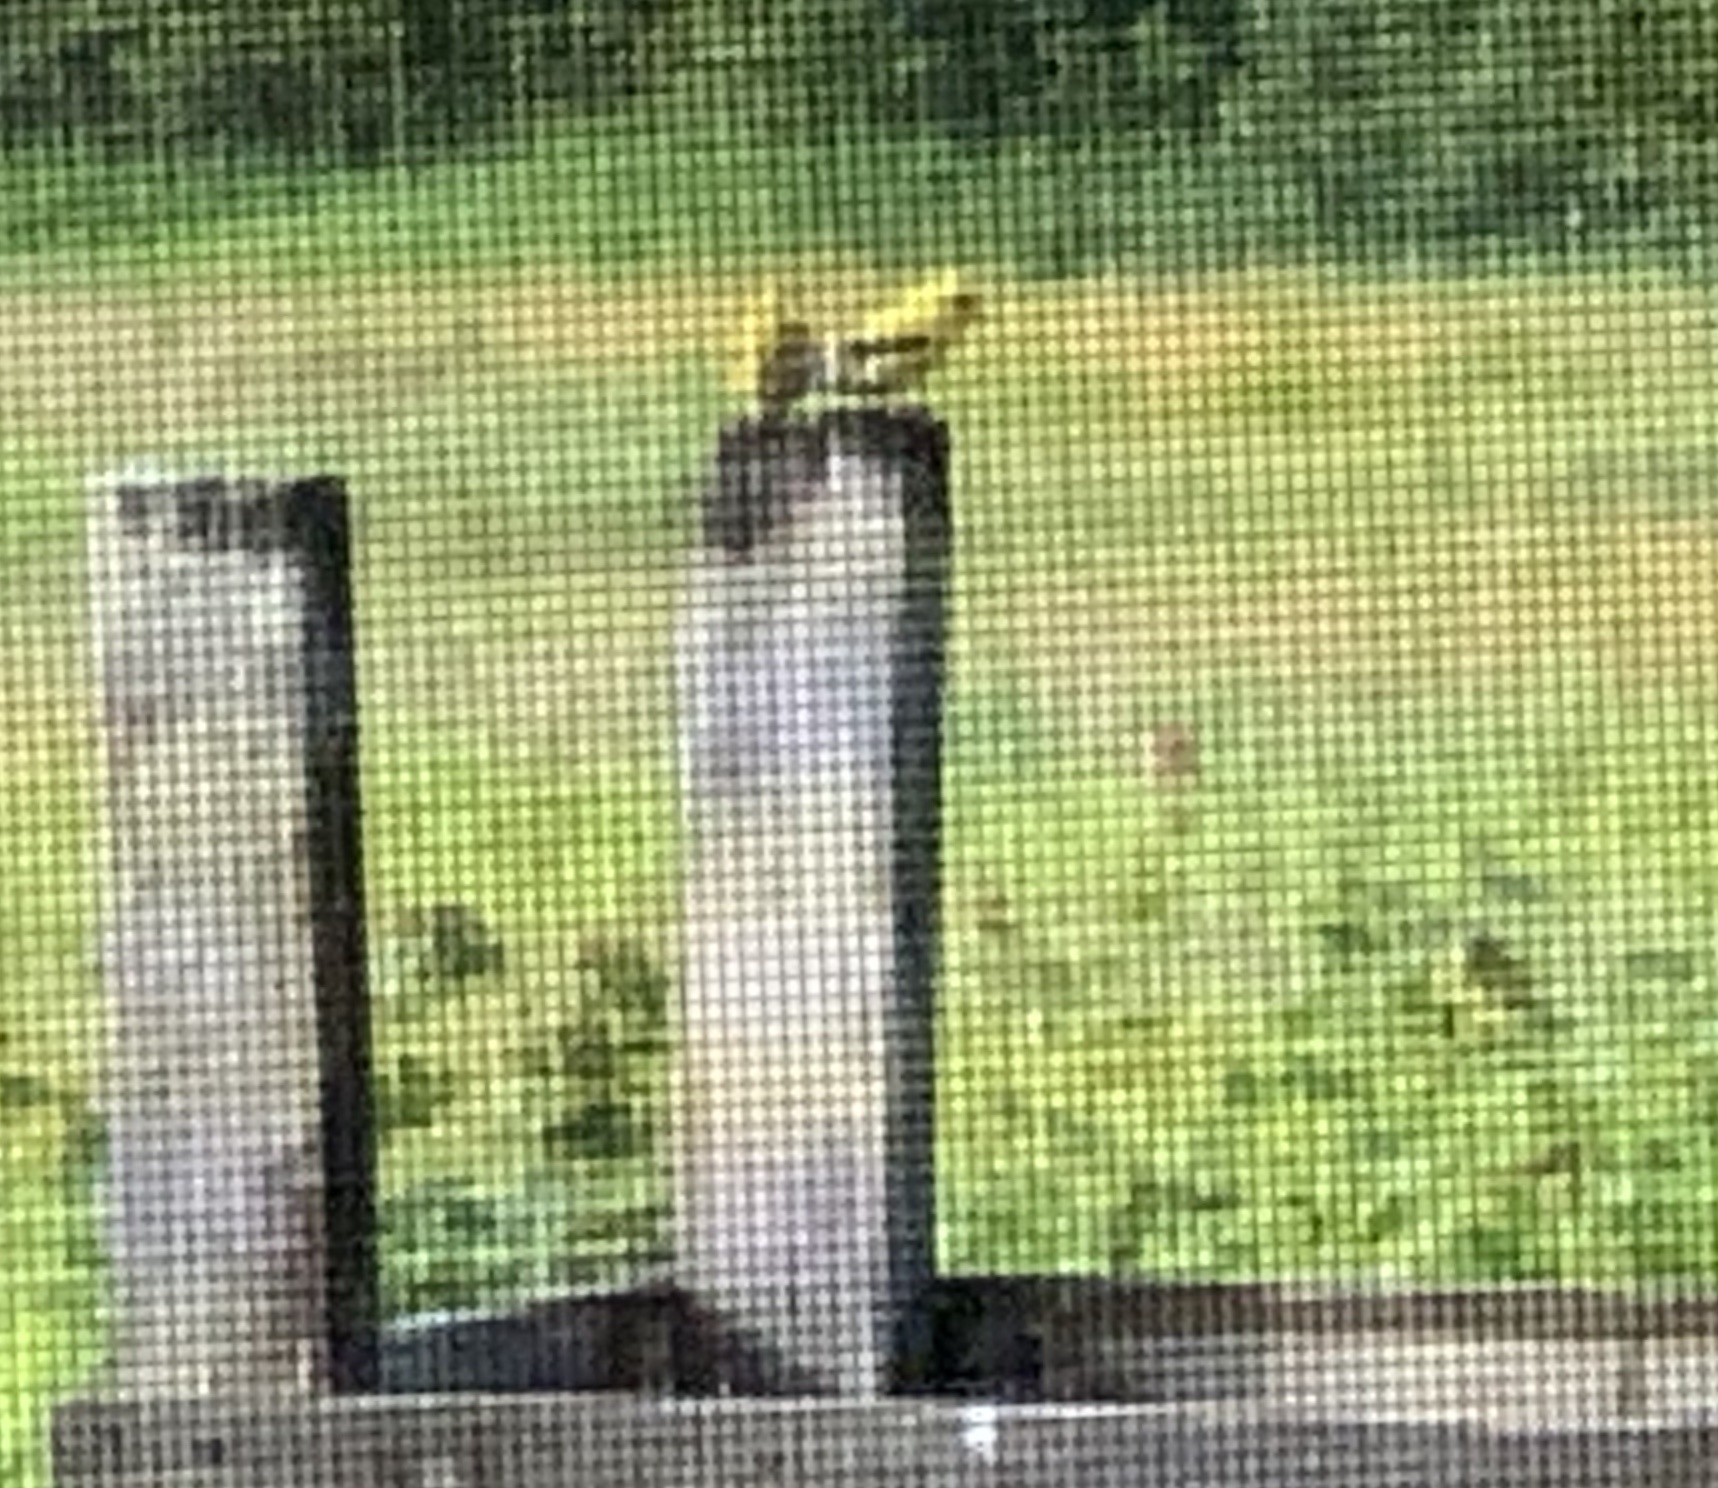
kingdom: Animalia
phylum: Chordata
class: Aves
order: Passeriformes
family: Fringillidae
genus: Spinus
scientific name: Spinus tristis
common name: American goldfinch
